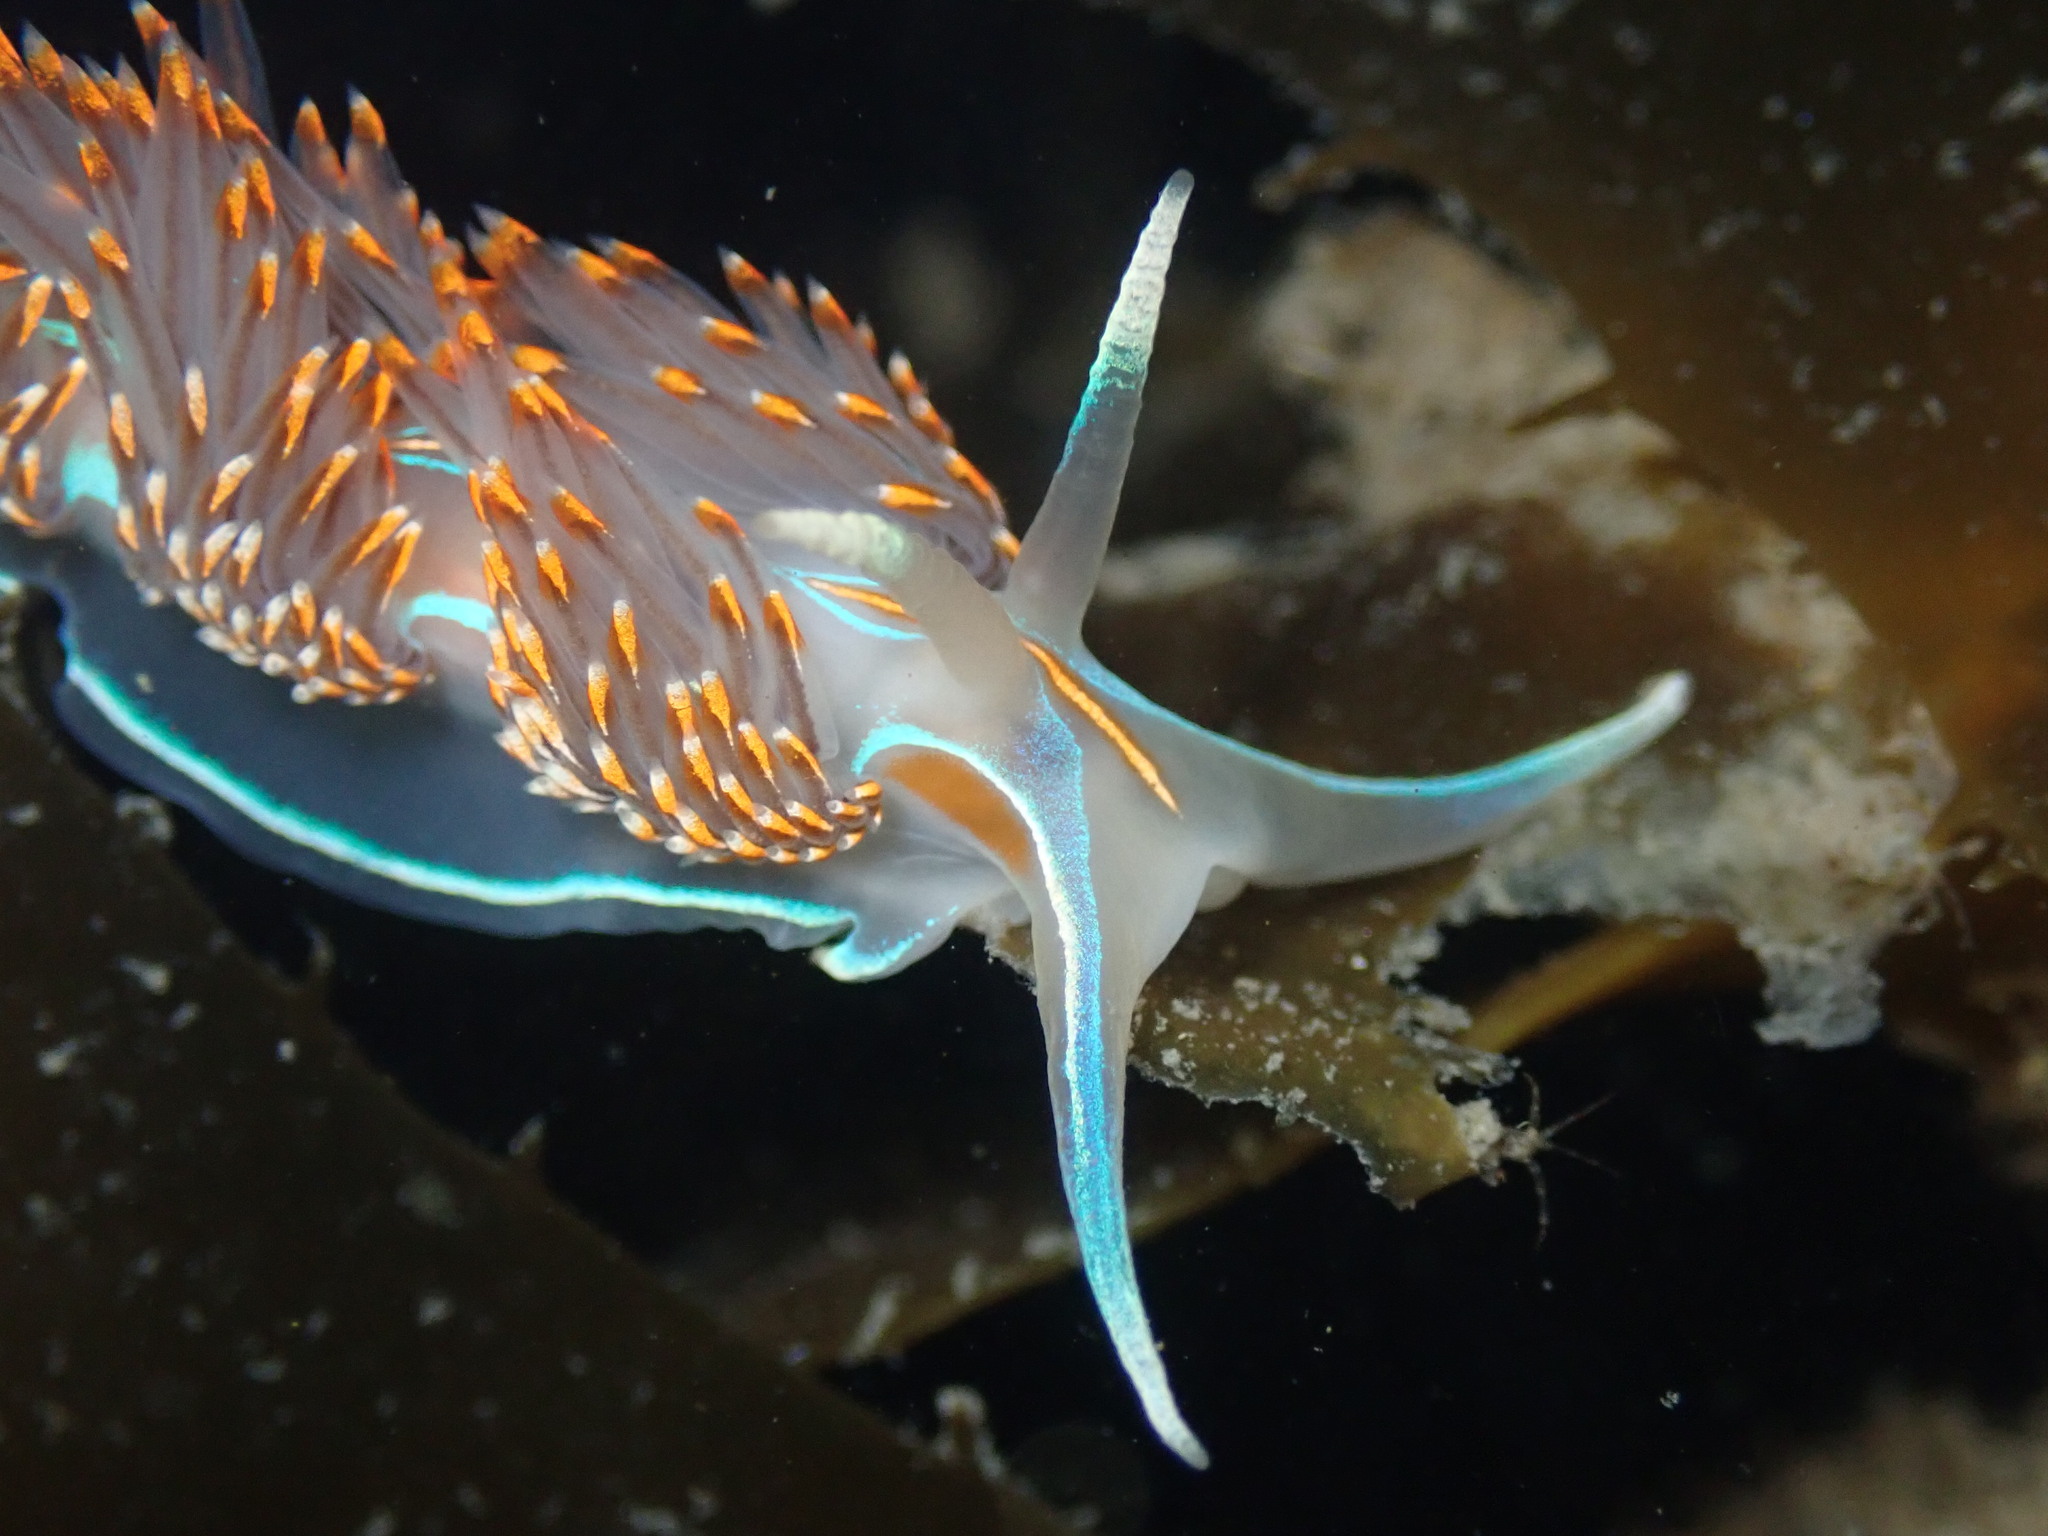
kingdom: Animalia
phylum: Mollusca
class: Gastropoda
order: Nudibranchia
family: Myrrhinidae
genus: Hermissenda
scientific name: Hermissenda opalescens
